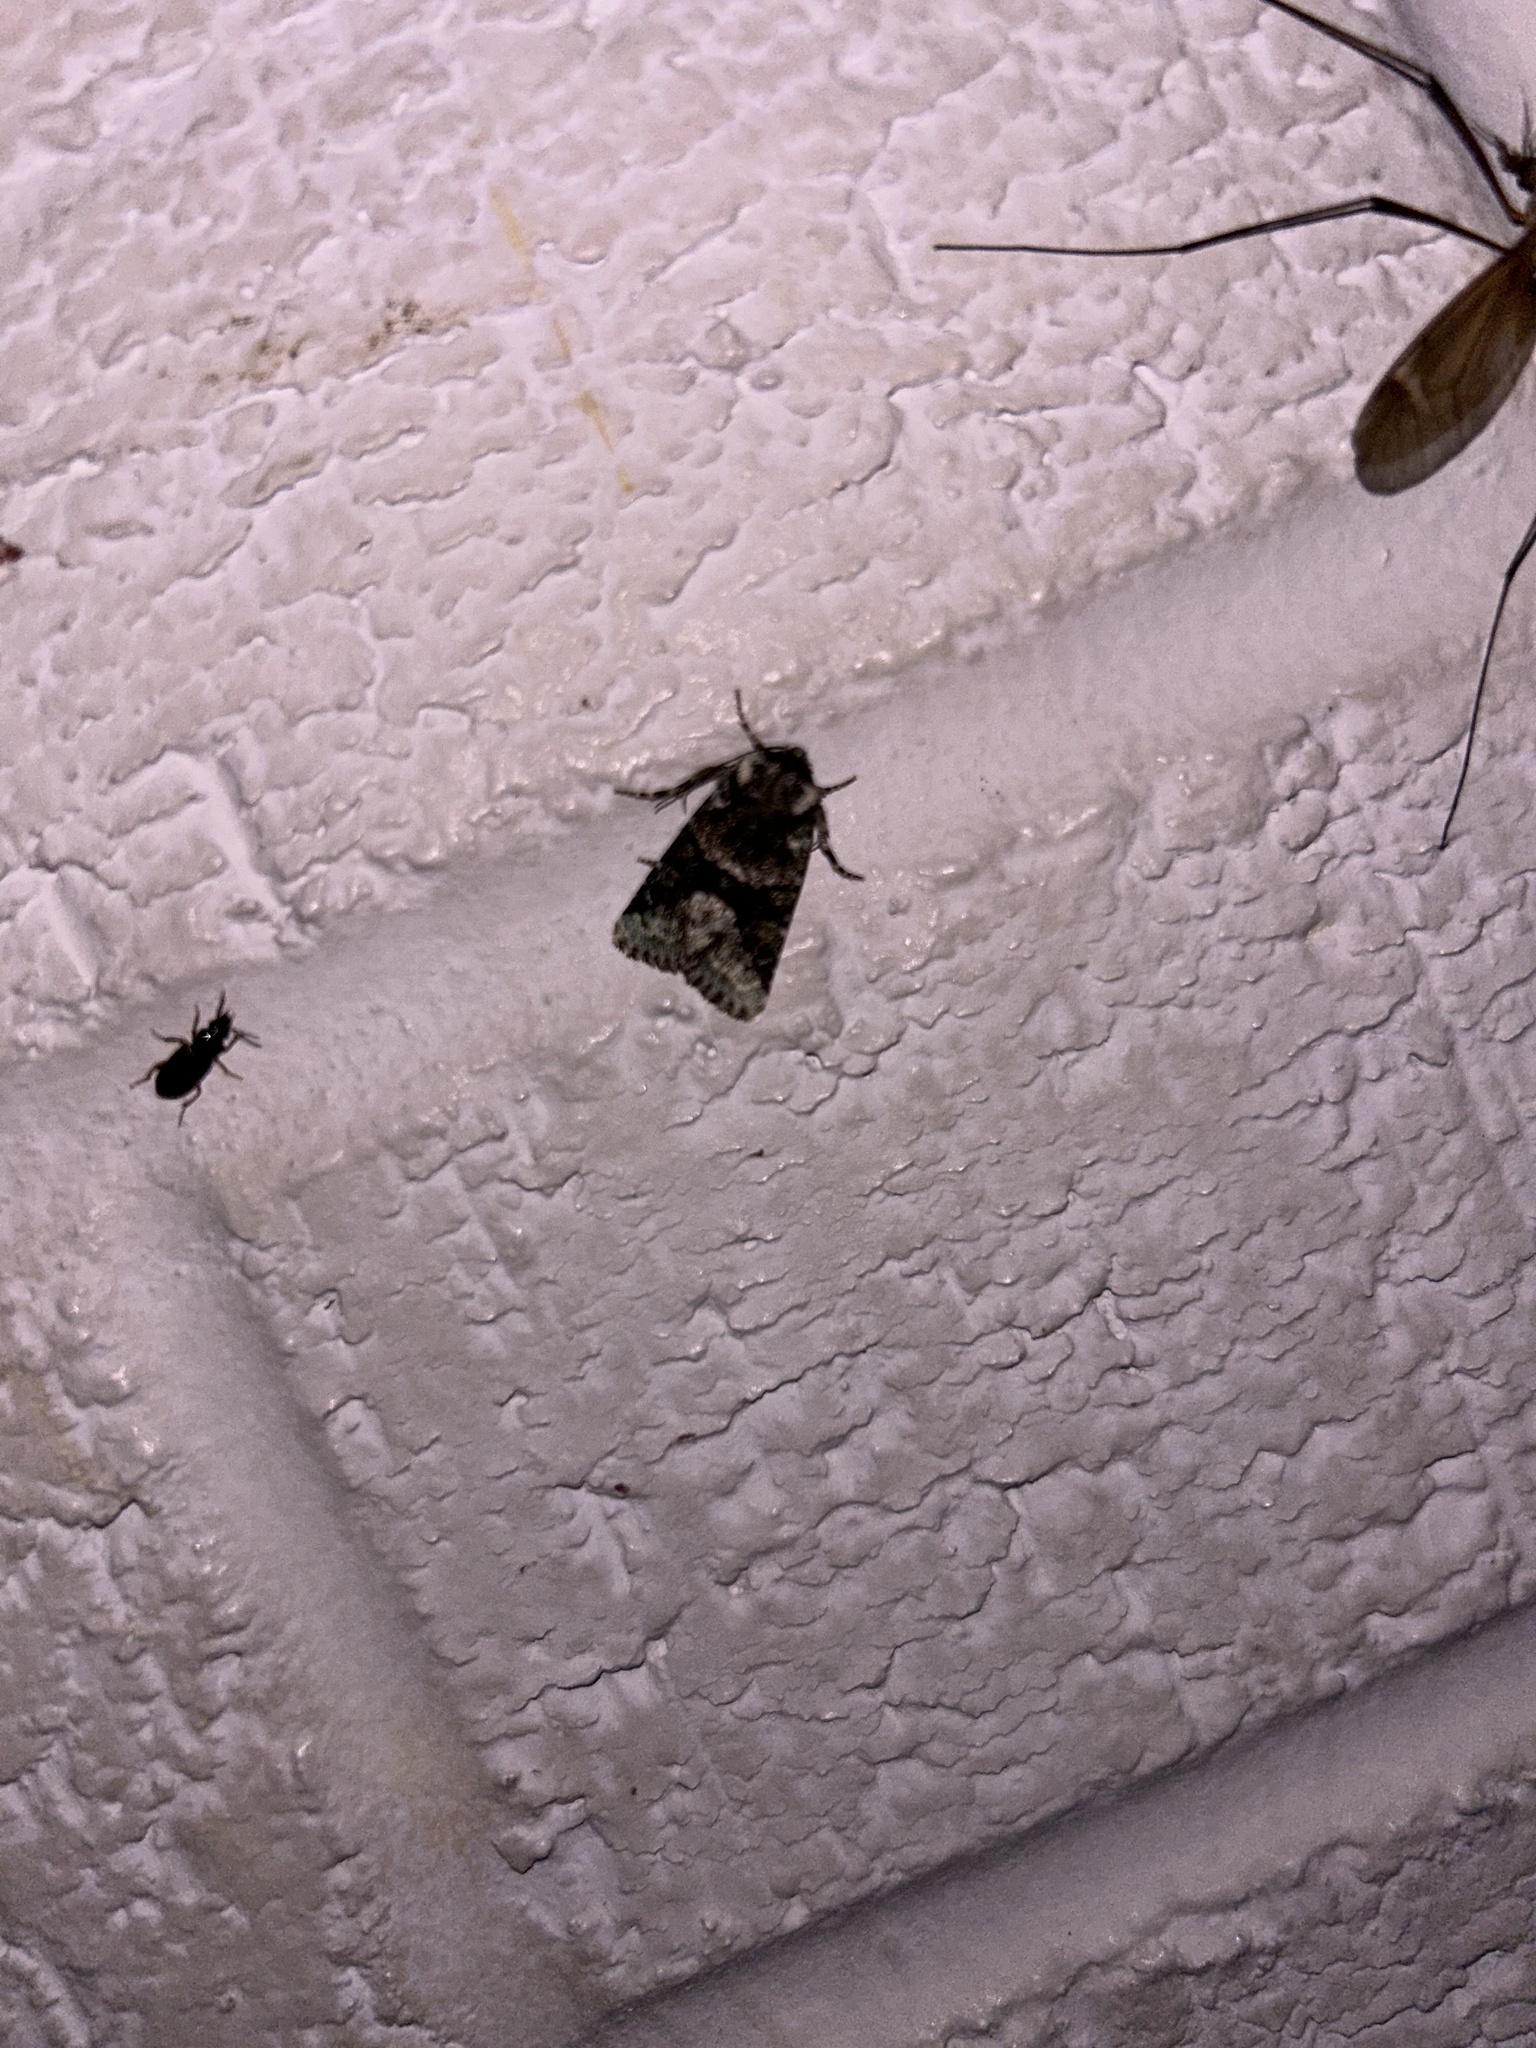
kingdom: Animalia
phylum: Arthropoda
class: Insecta
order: Lepidoptera
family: Noctuidae
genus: Lacinipolia
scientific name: Lacinipolia explicata
